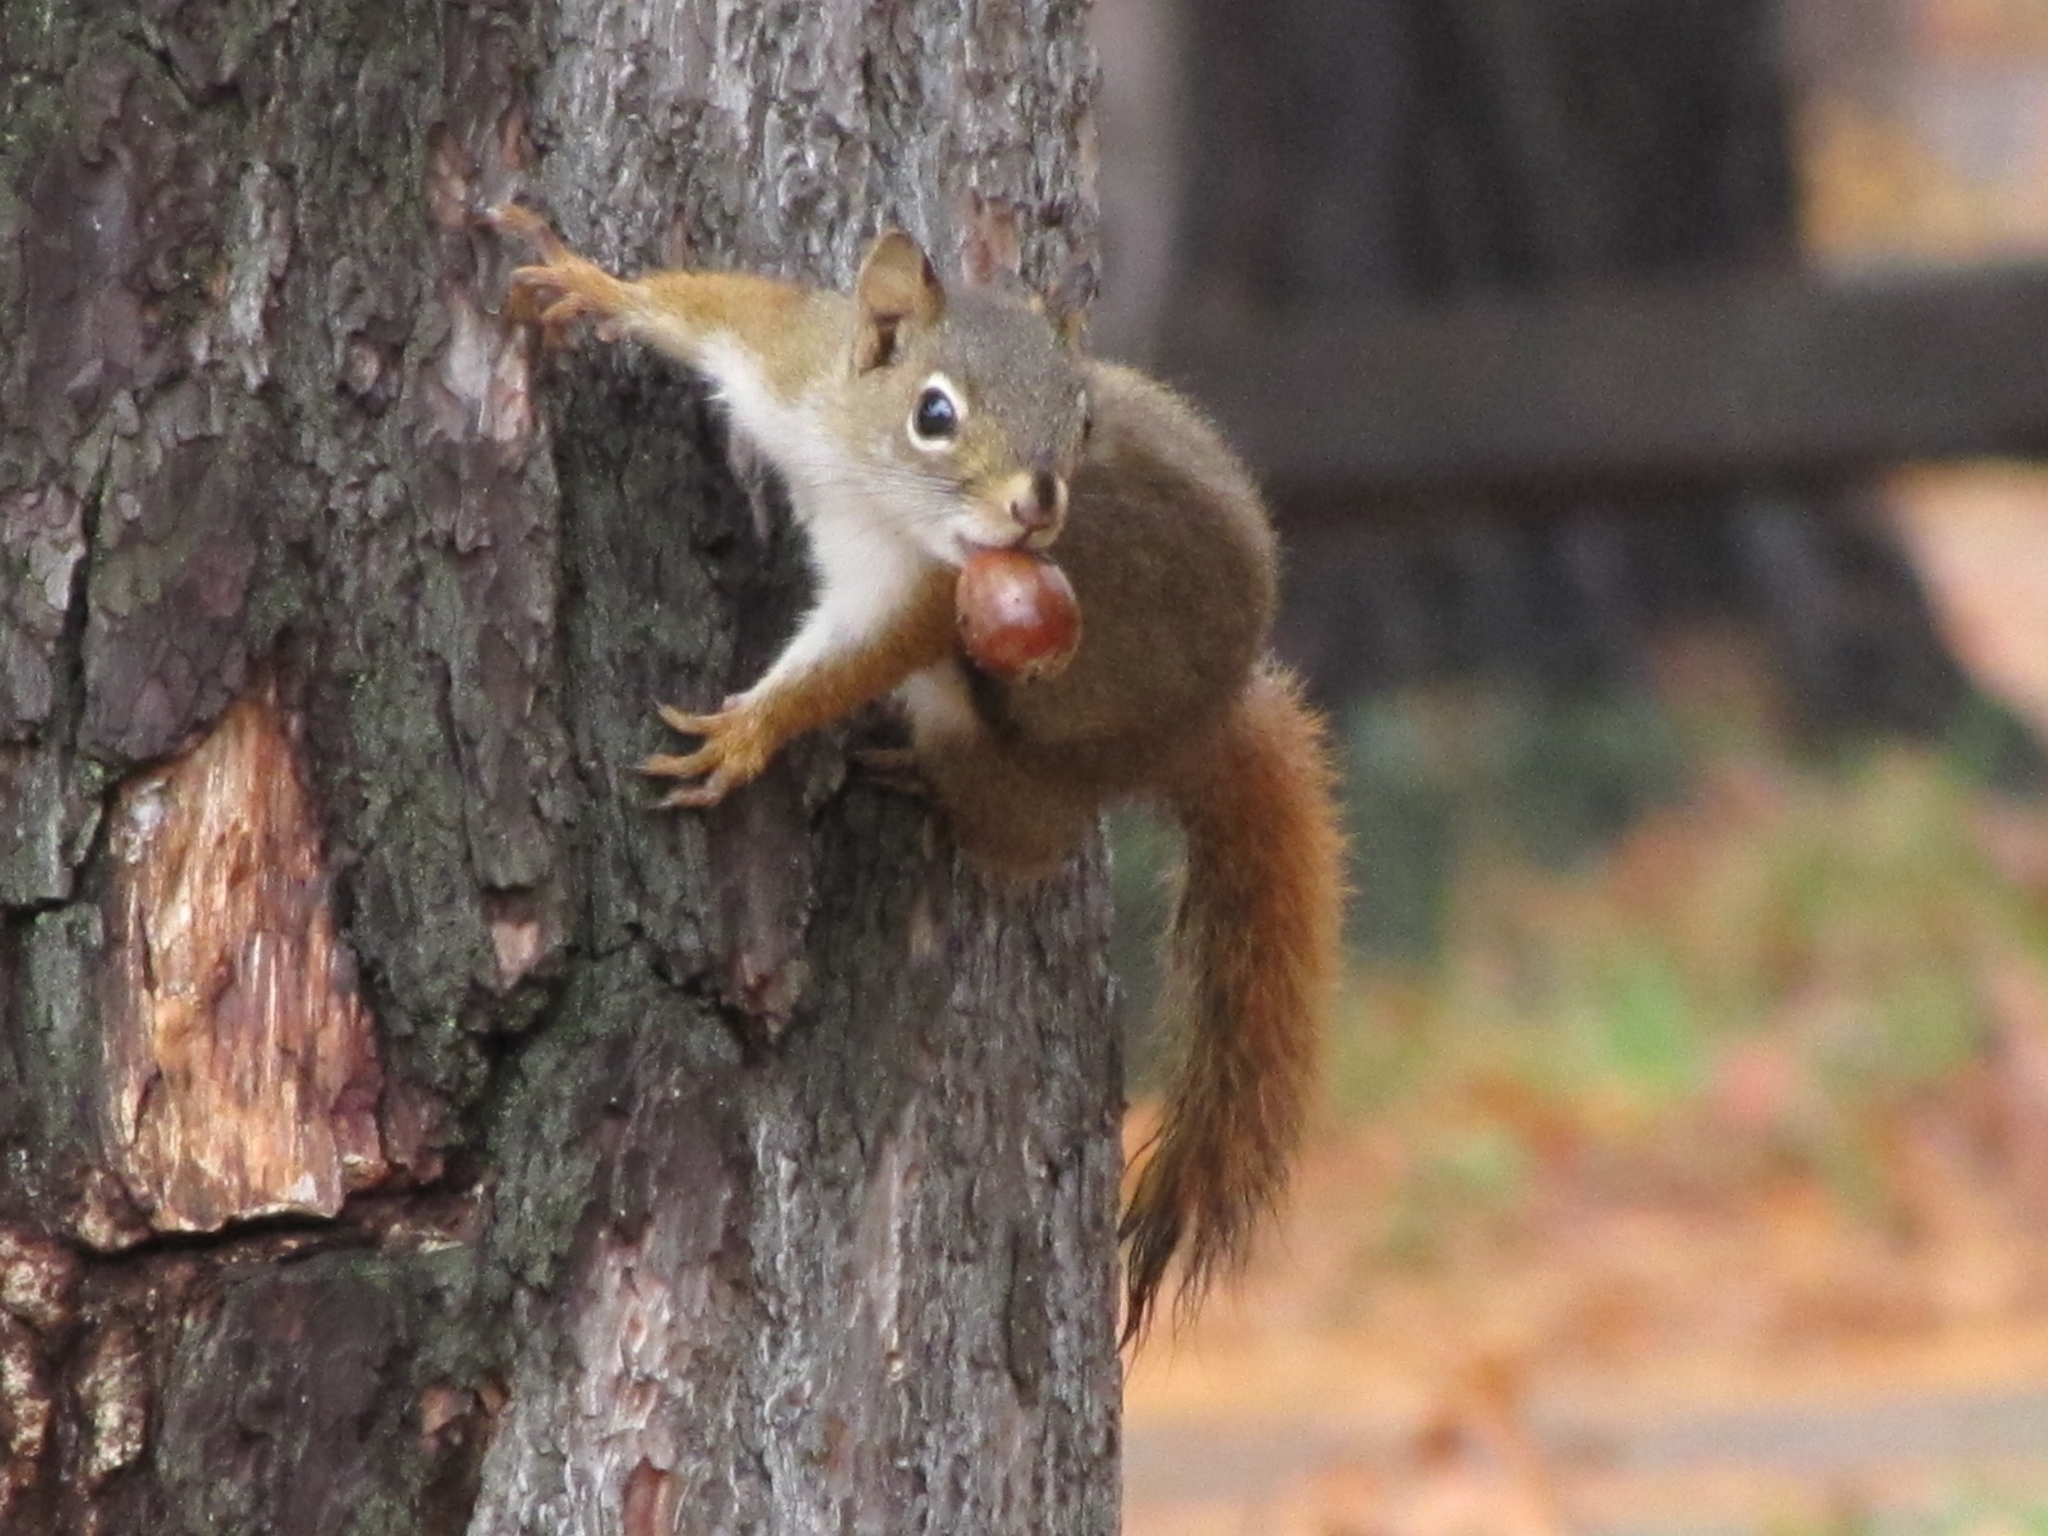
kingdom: Animalia
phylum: Chordata
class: Mammalia
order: Rodentia
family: Sciuridae
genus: Tamiasciurus
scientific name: Tamiasciurus hudsonicus
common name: Red squirrel
